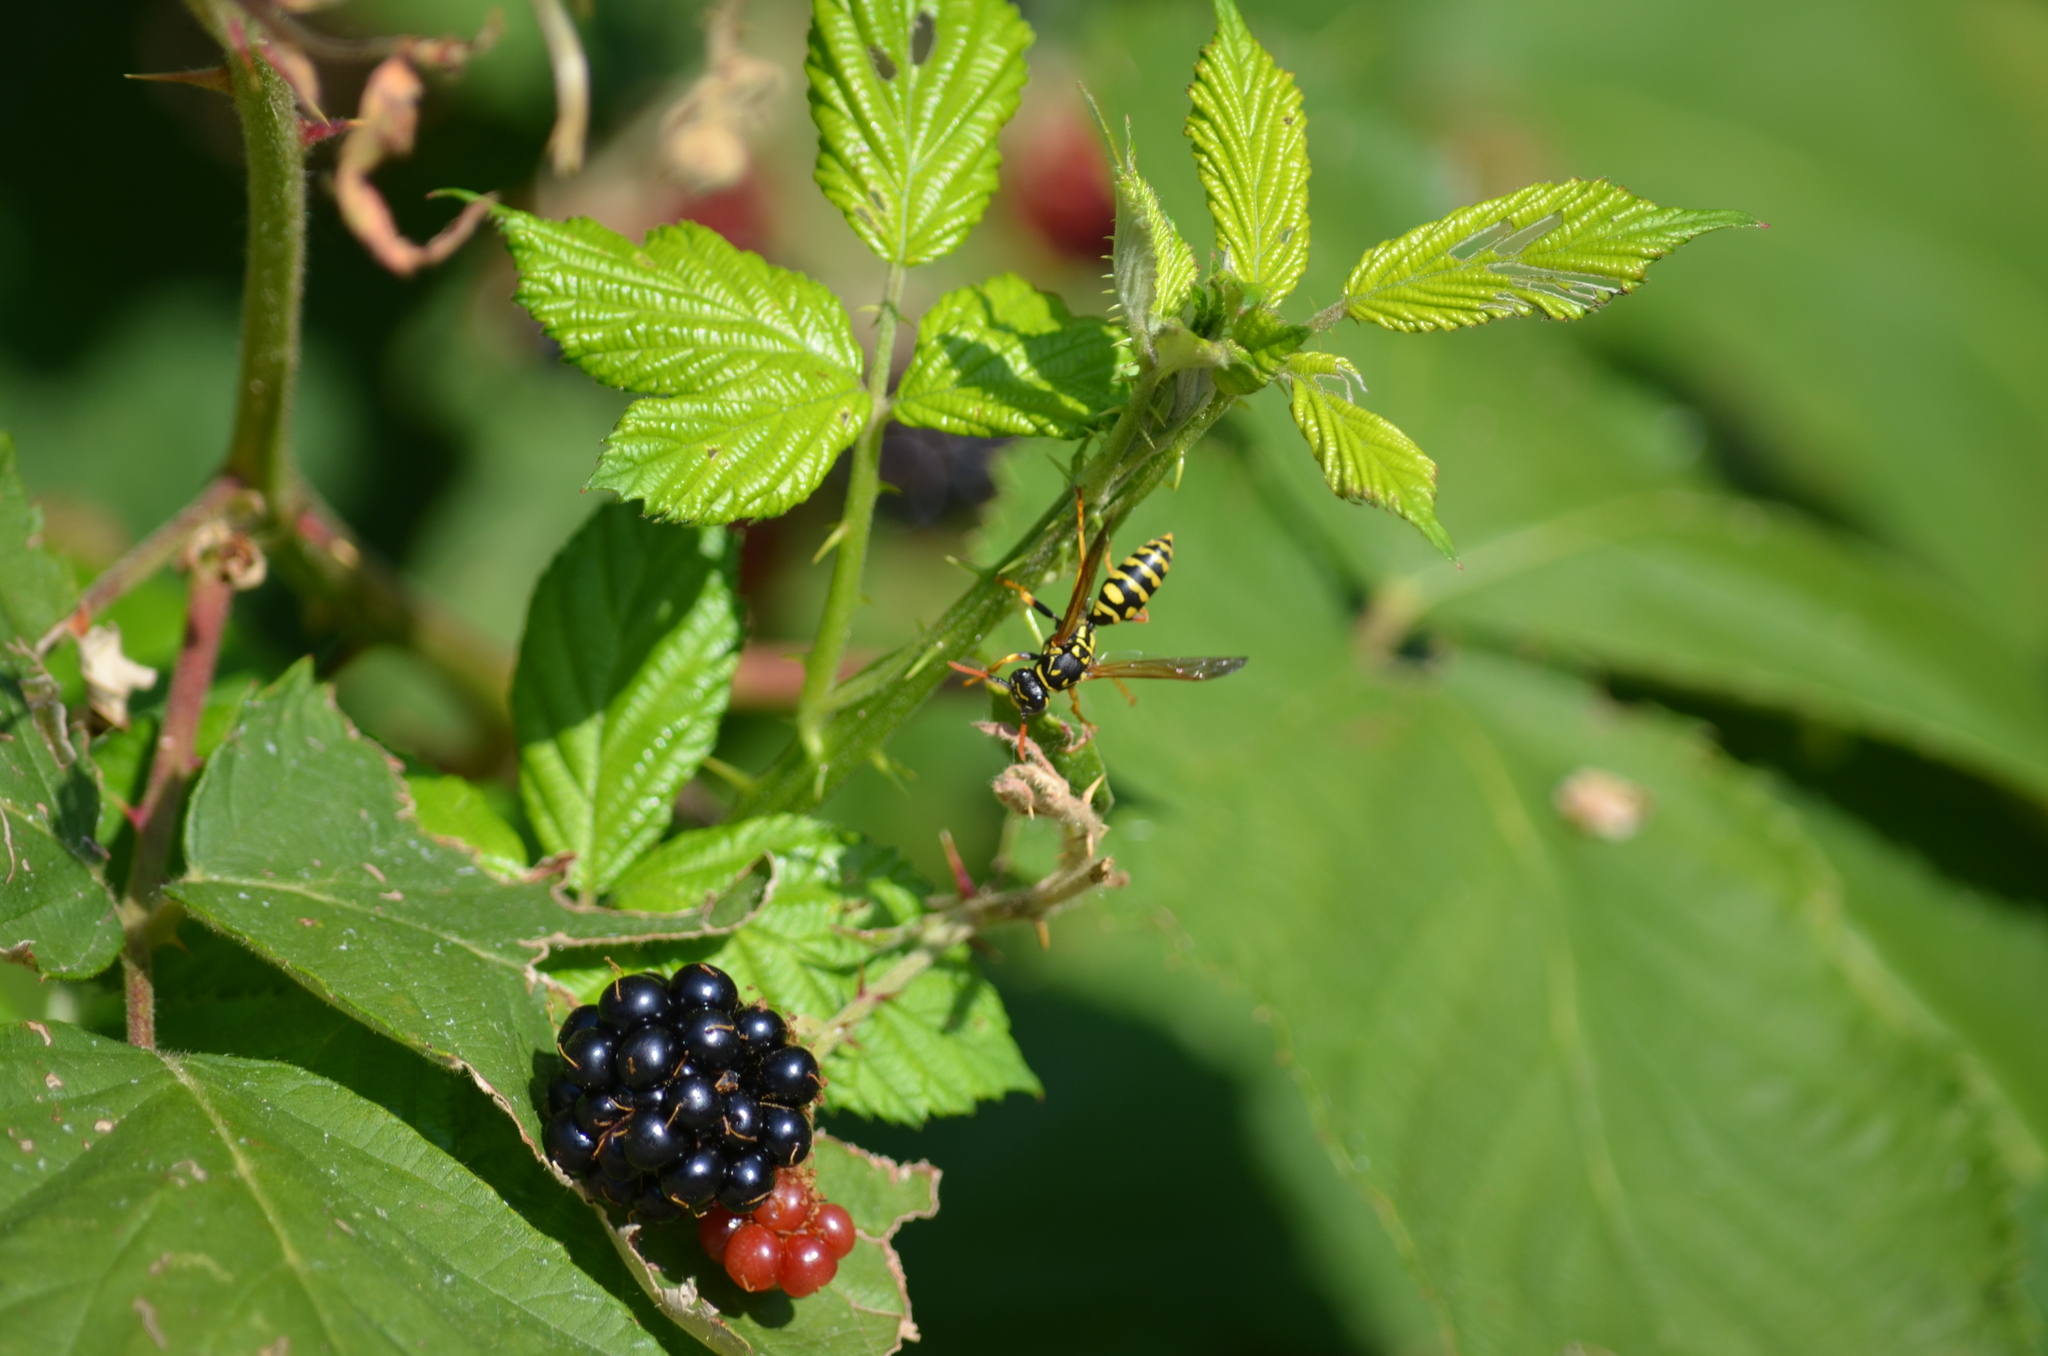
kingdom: Animalia
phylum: Arthropoda
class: Insecta
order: Hymenoptera
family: Eumenidae
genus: Polistes
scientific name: Polistes dominula
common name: Paper wasp
